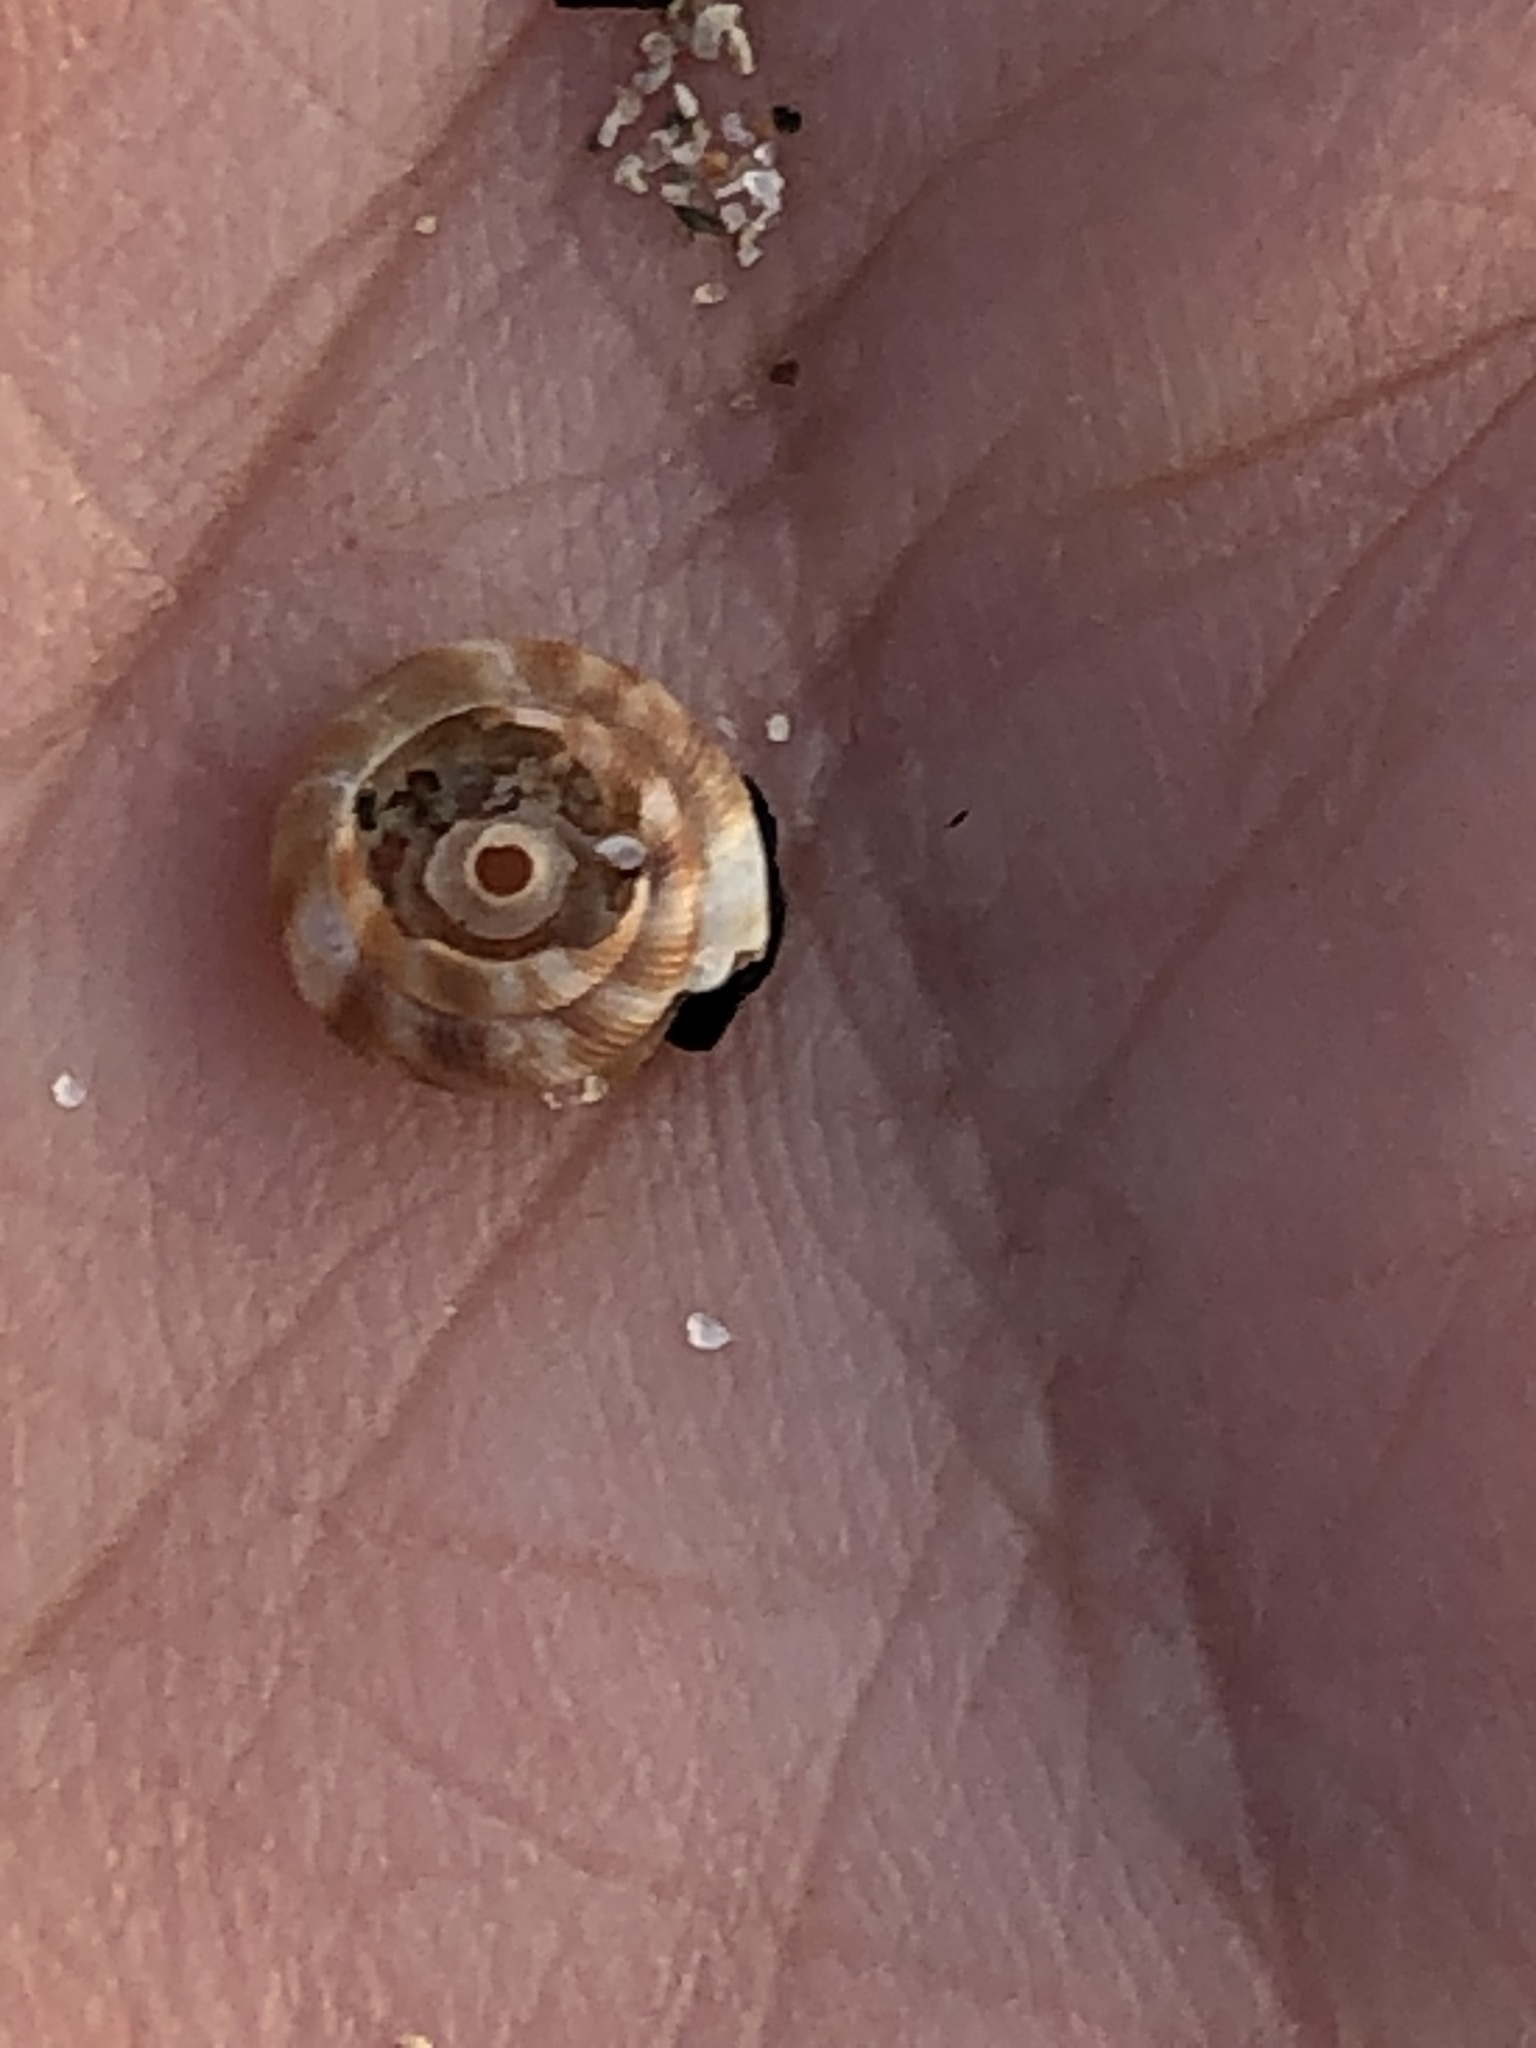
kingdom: Animalia
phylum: Mollusca
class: Gastropoda
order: Stylommatophora
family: Discidae
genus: Discus
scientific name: Discus rotundatus
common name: Rounded snail
